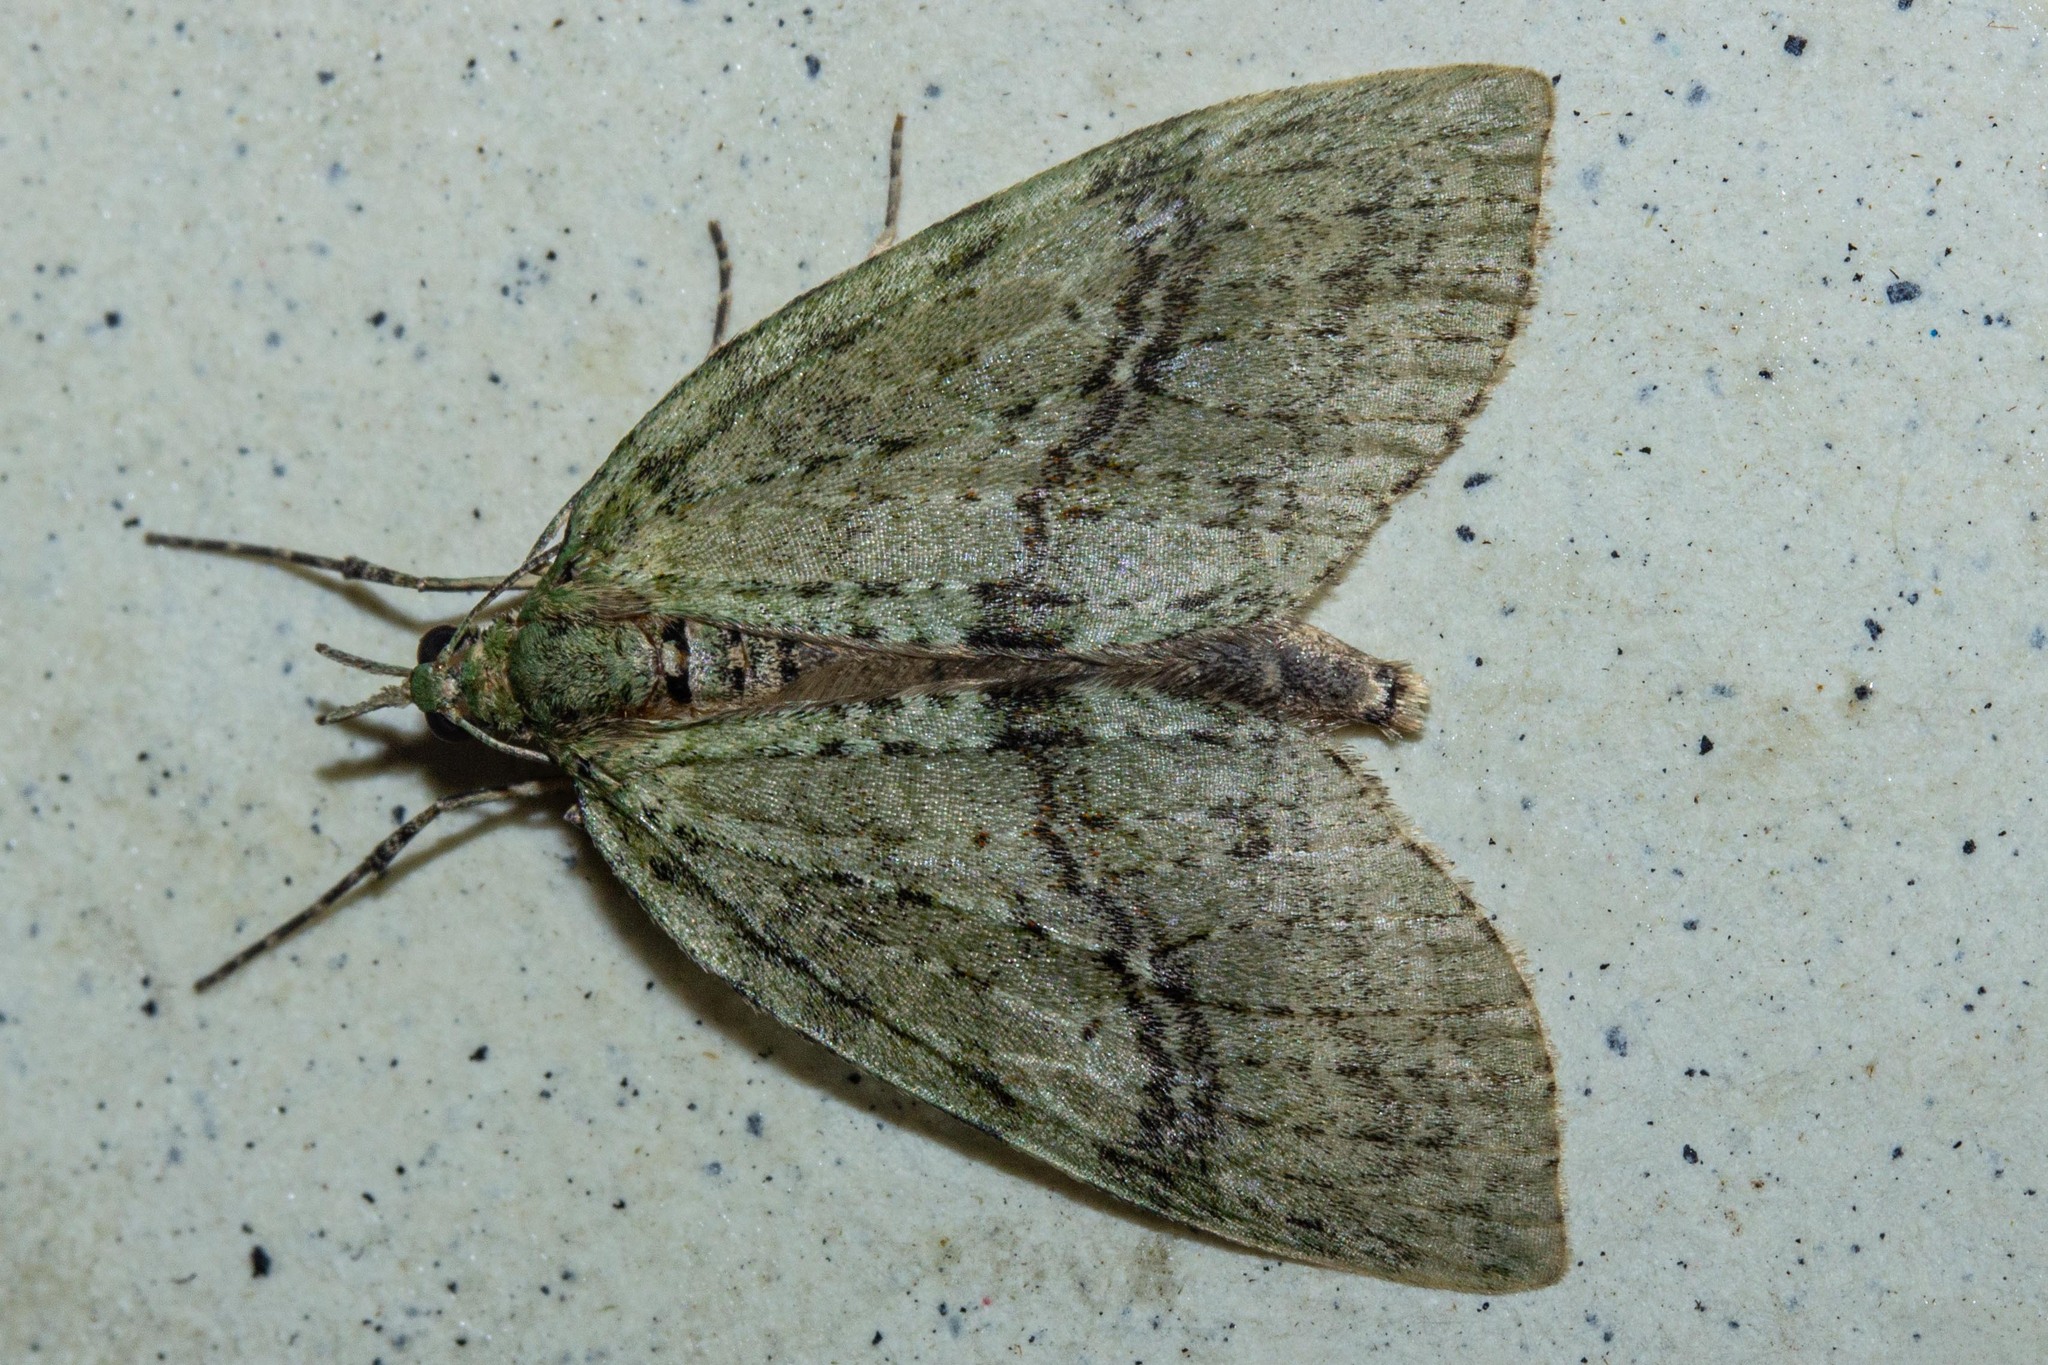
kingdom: Animalia
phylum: Arthropoda
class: Insecta
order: Lepidoptera
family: Geometridae
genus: Tatosoma
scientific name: Tatosoma transitaria
